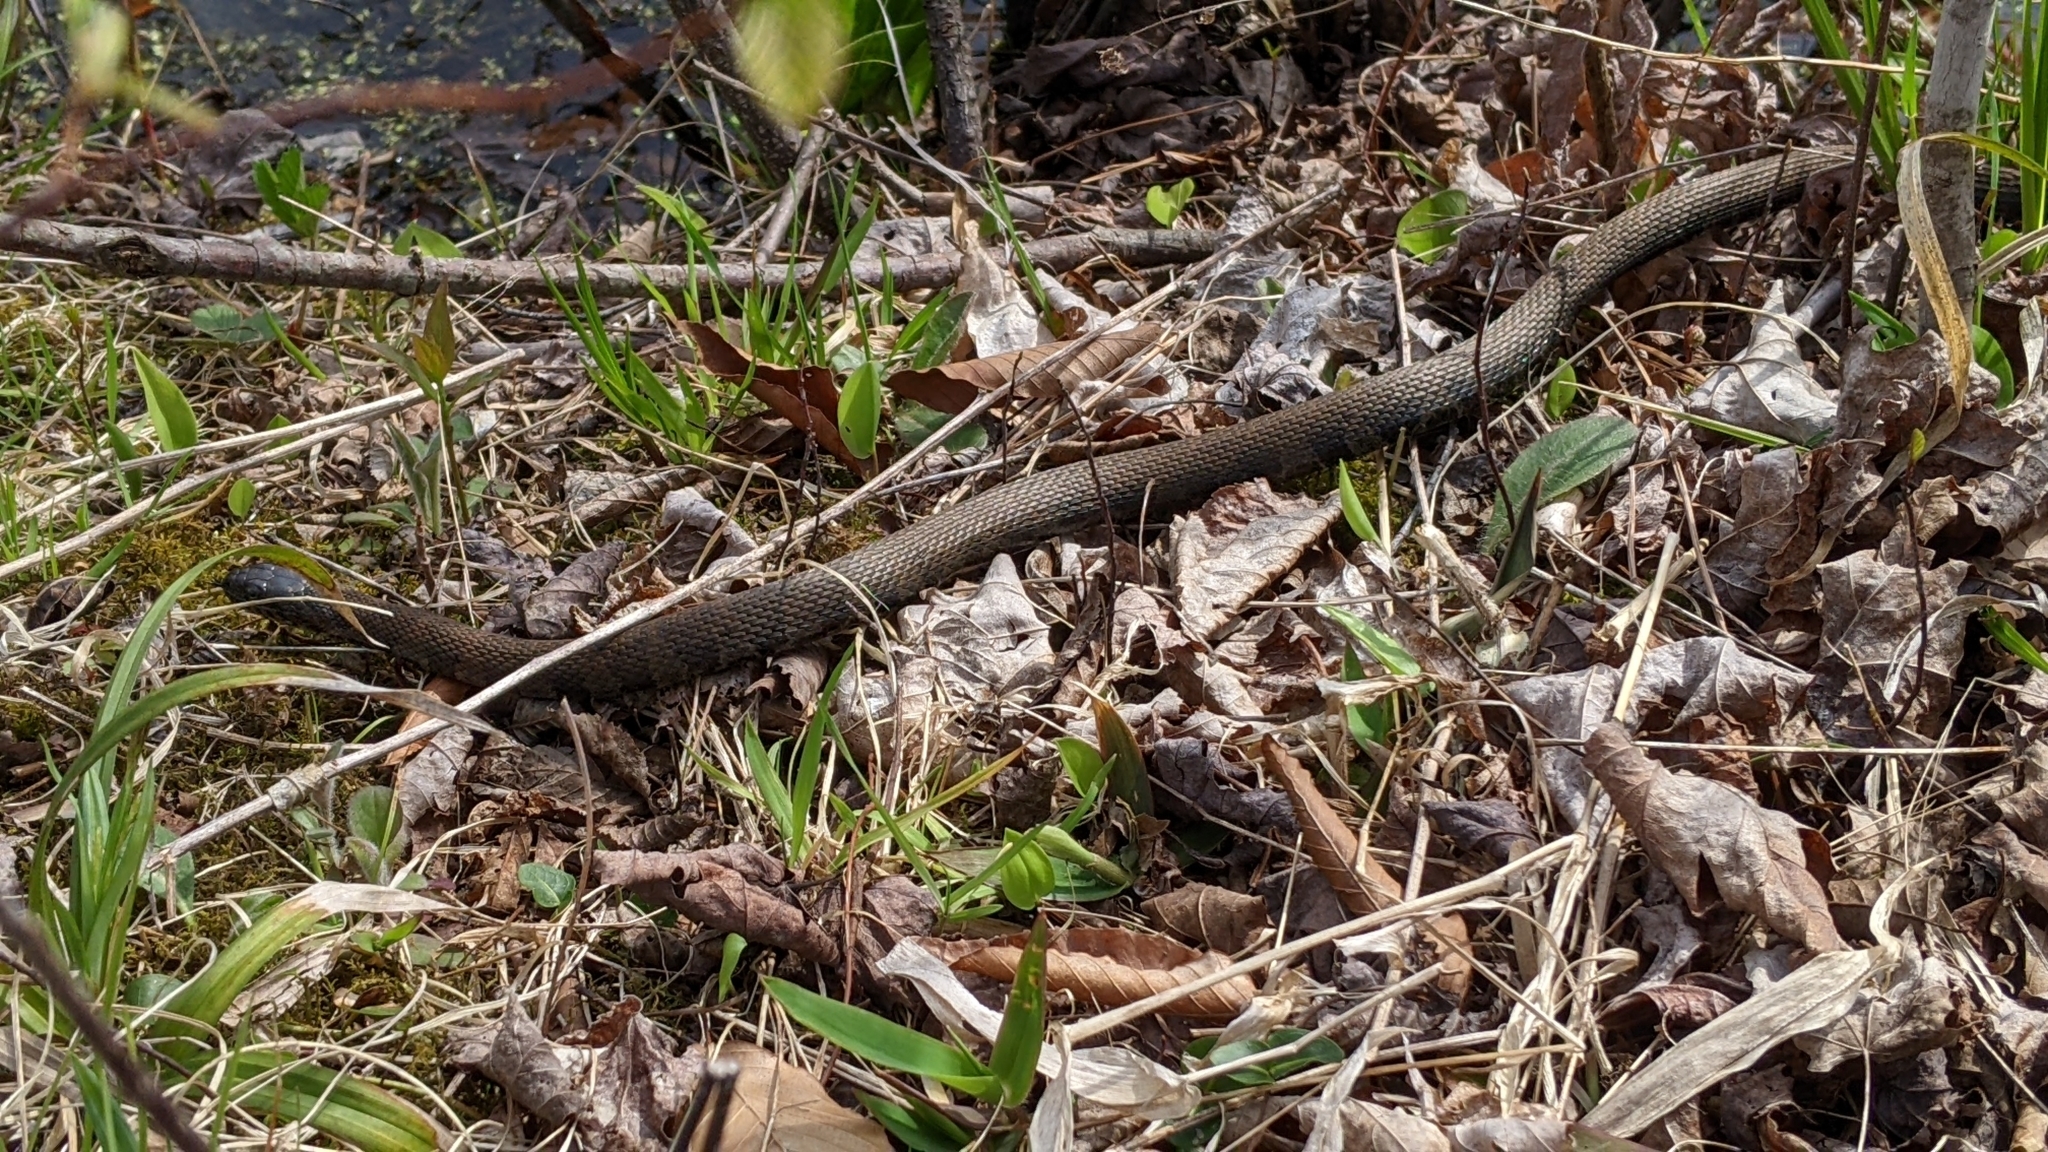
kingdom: Animalia
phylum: Chordata
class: Squamata
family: Colubridae
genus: Nerodia
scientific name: Nerodia sipedon
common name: Northern water snake
